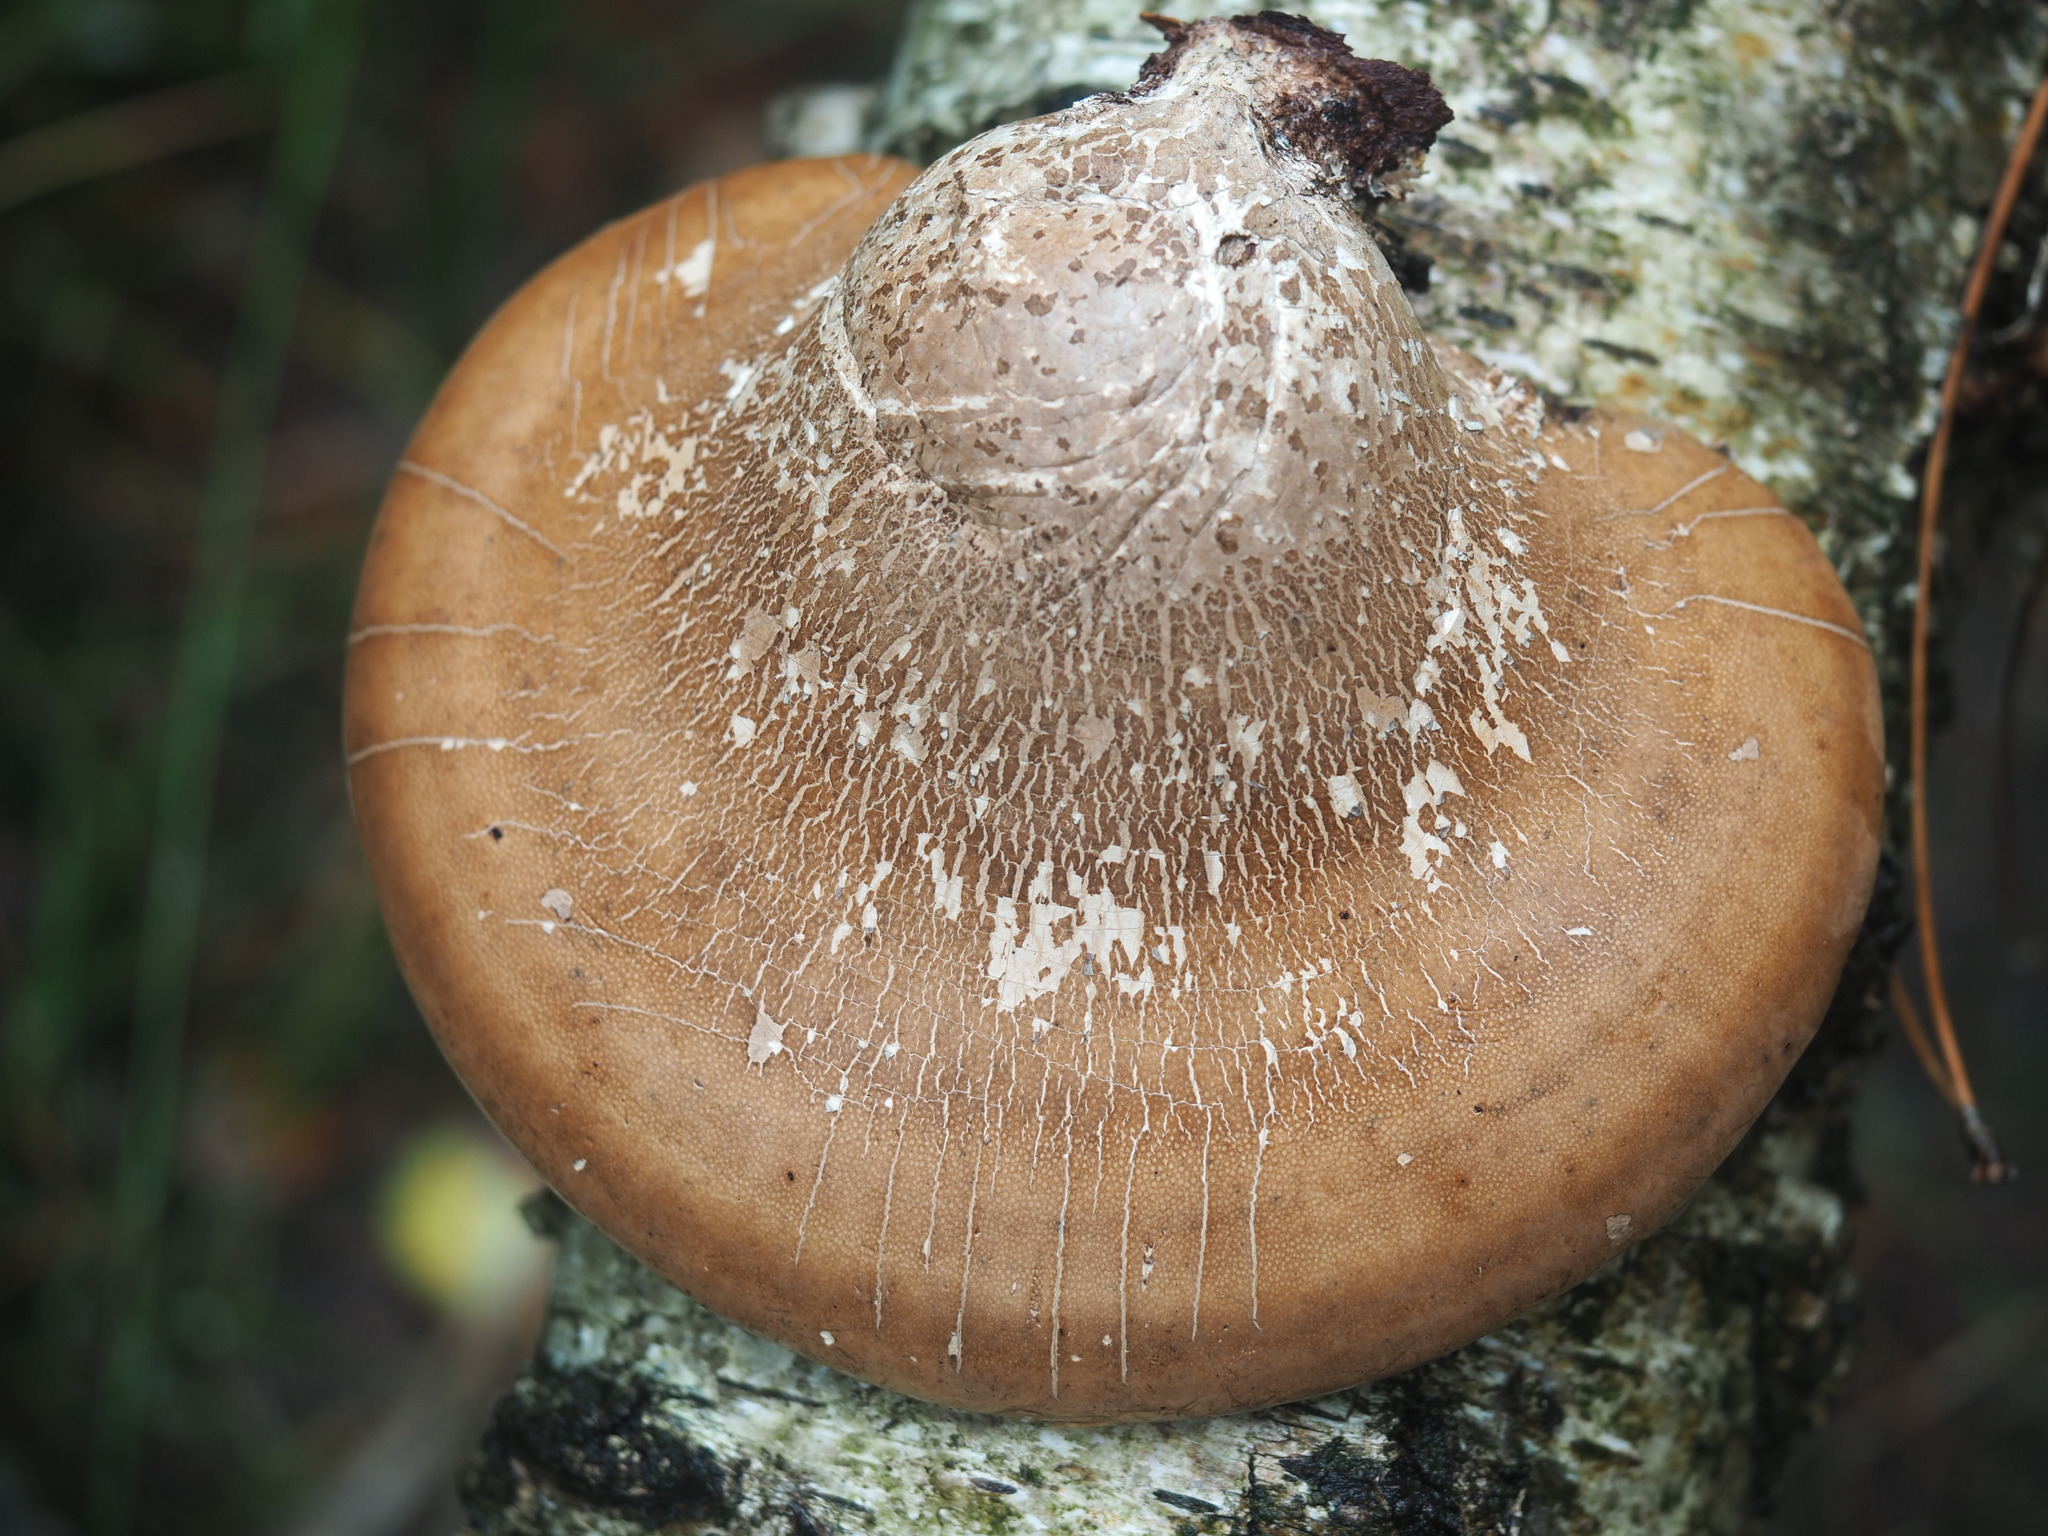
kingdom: Fungi
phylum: Basidiomycota
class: Agaricomycetes
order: Polyporales
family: Fomitopsidaceae
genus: Fomitopsis
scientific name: Fomitopsis betulina
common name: Birch polypore
